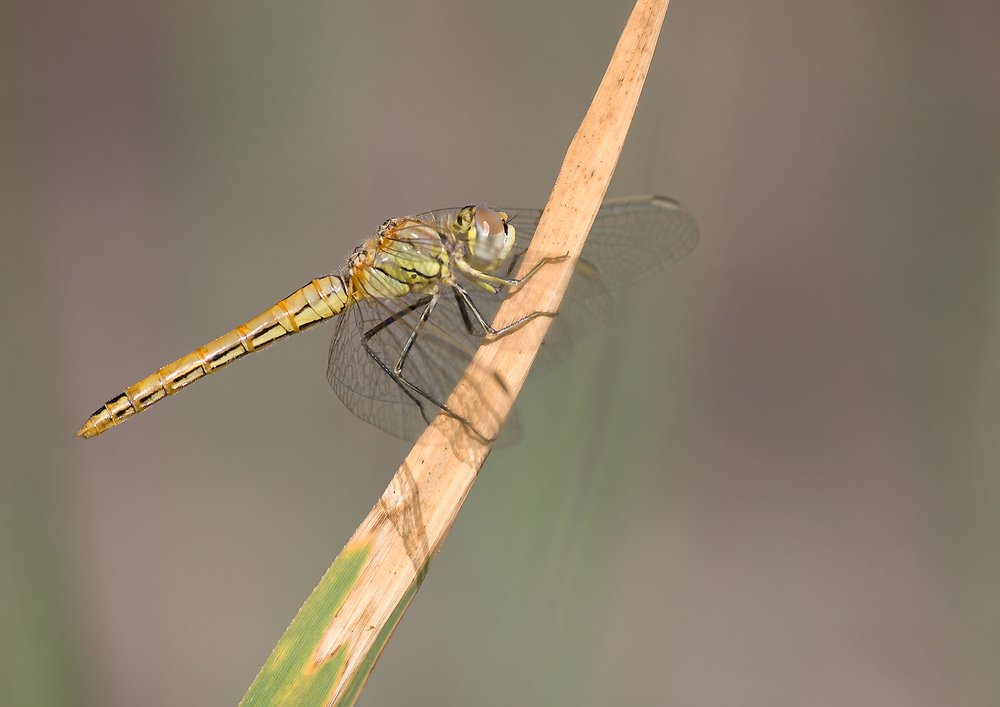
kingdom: Animalia
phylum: Arthropoda
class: Insecta
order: Odonata
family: Libellulidae
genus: Sympetrum
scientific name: Sympetrum fonscolombii
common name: Red-veined darter
